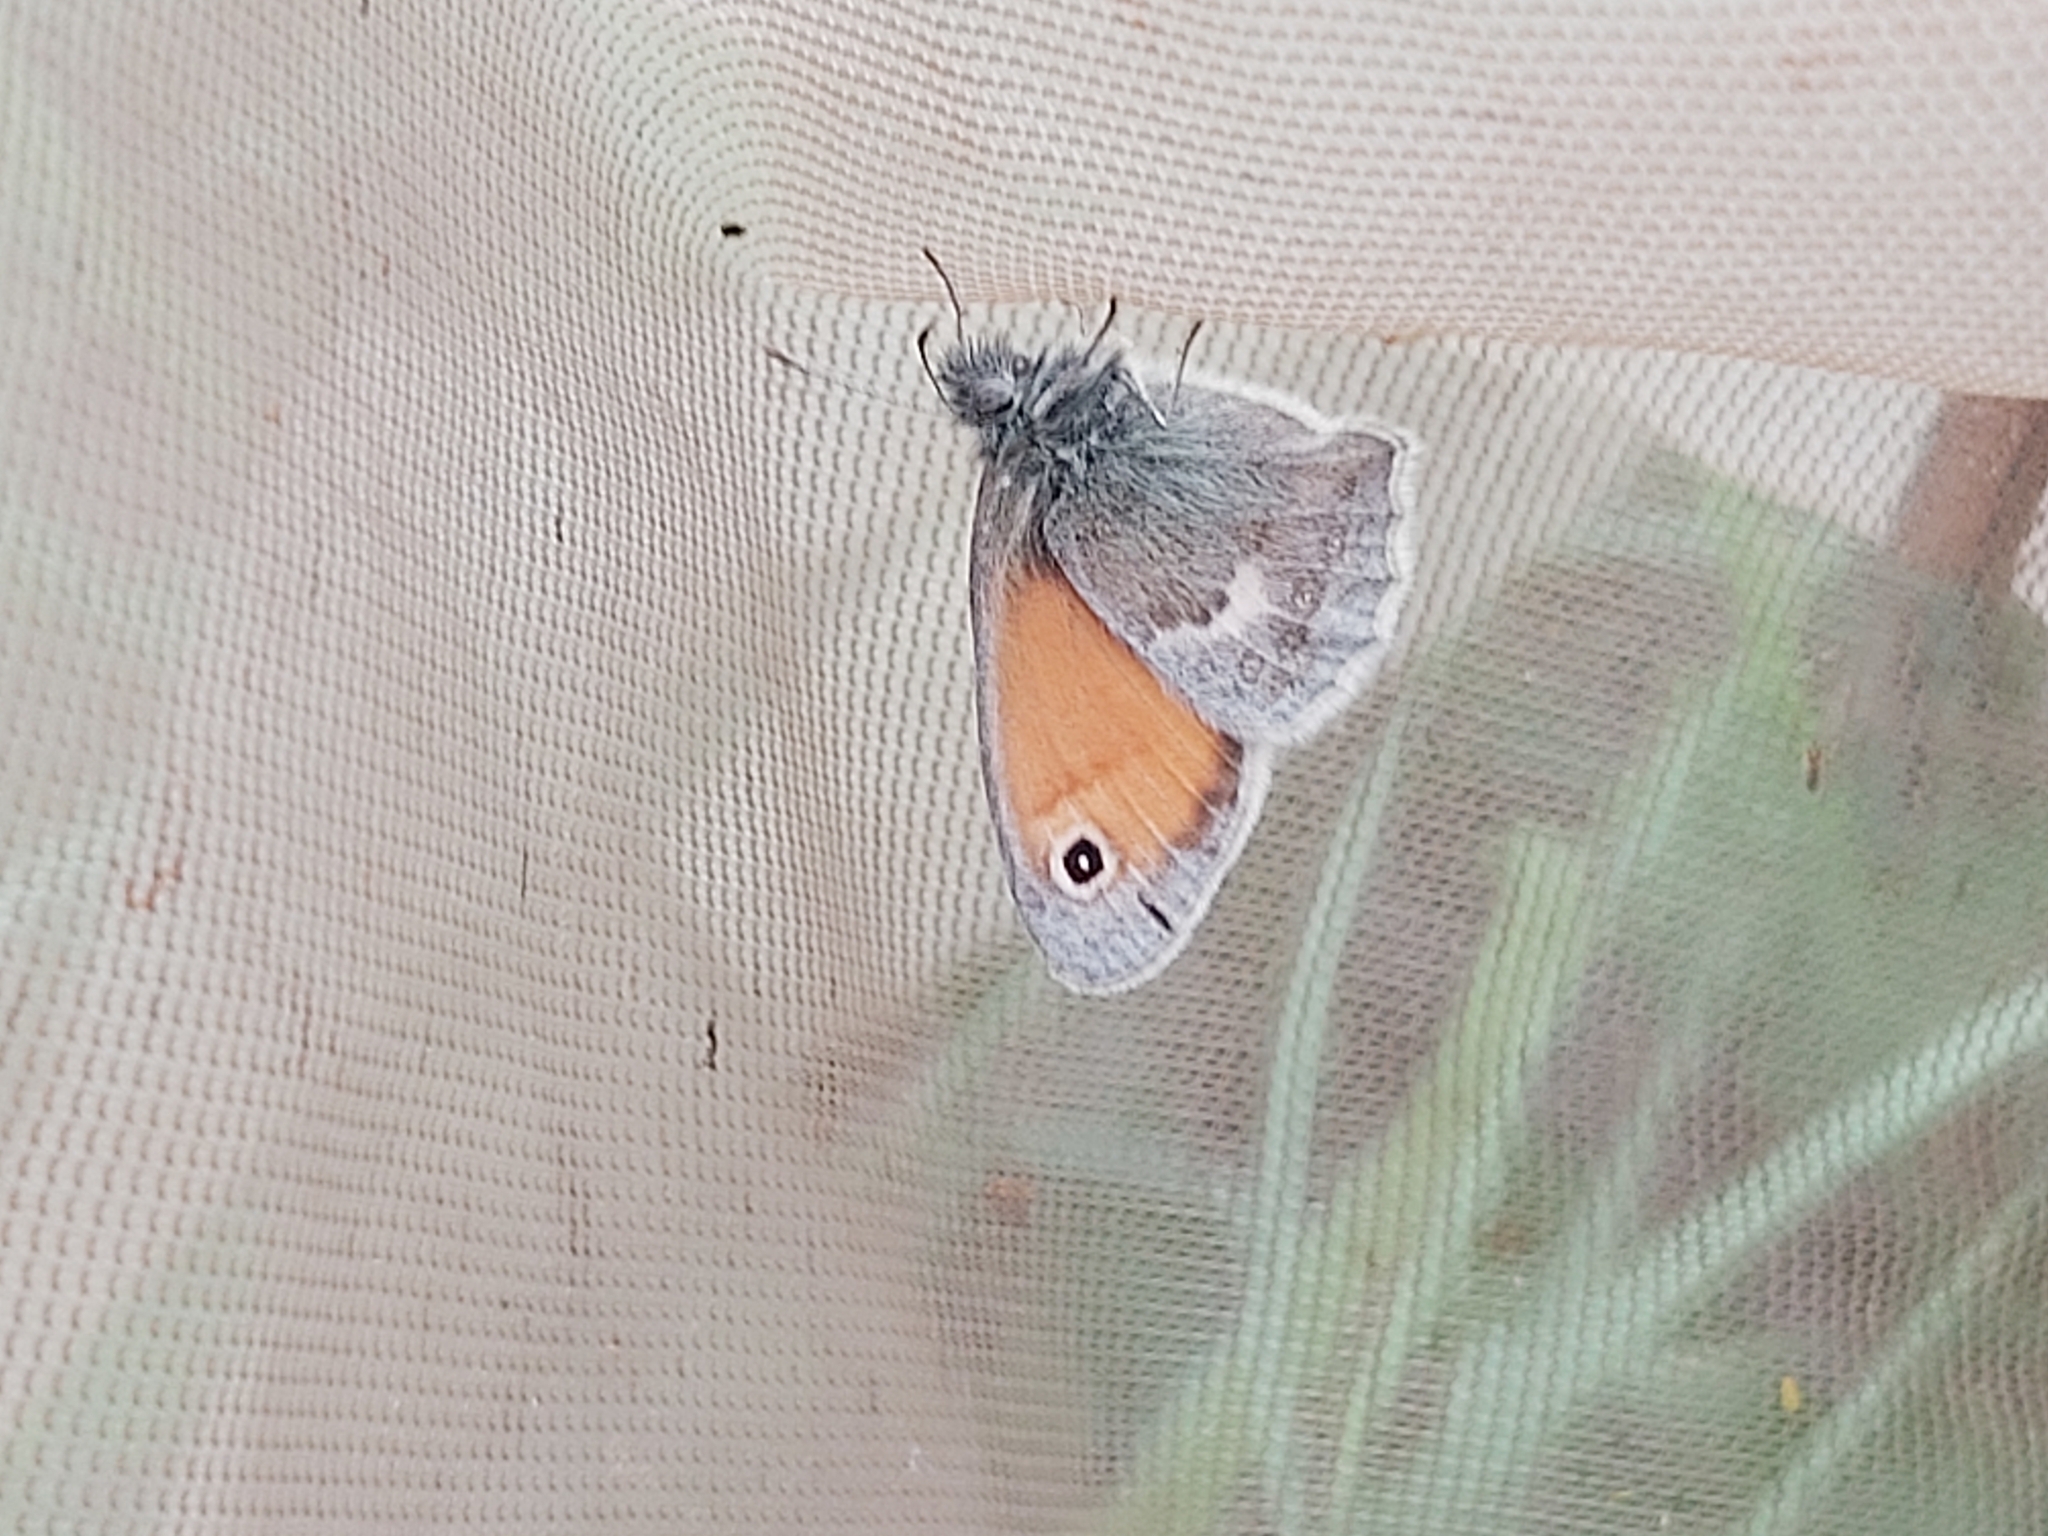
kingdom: Animalia
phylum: Arthropoda
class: Insecta
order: Lepidoptera
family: Nymphalidae
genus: Coenonympha
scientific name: Coenonympha pamphilus
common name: Small heath
